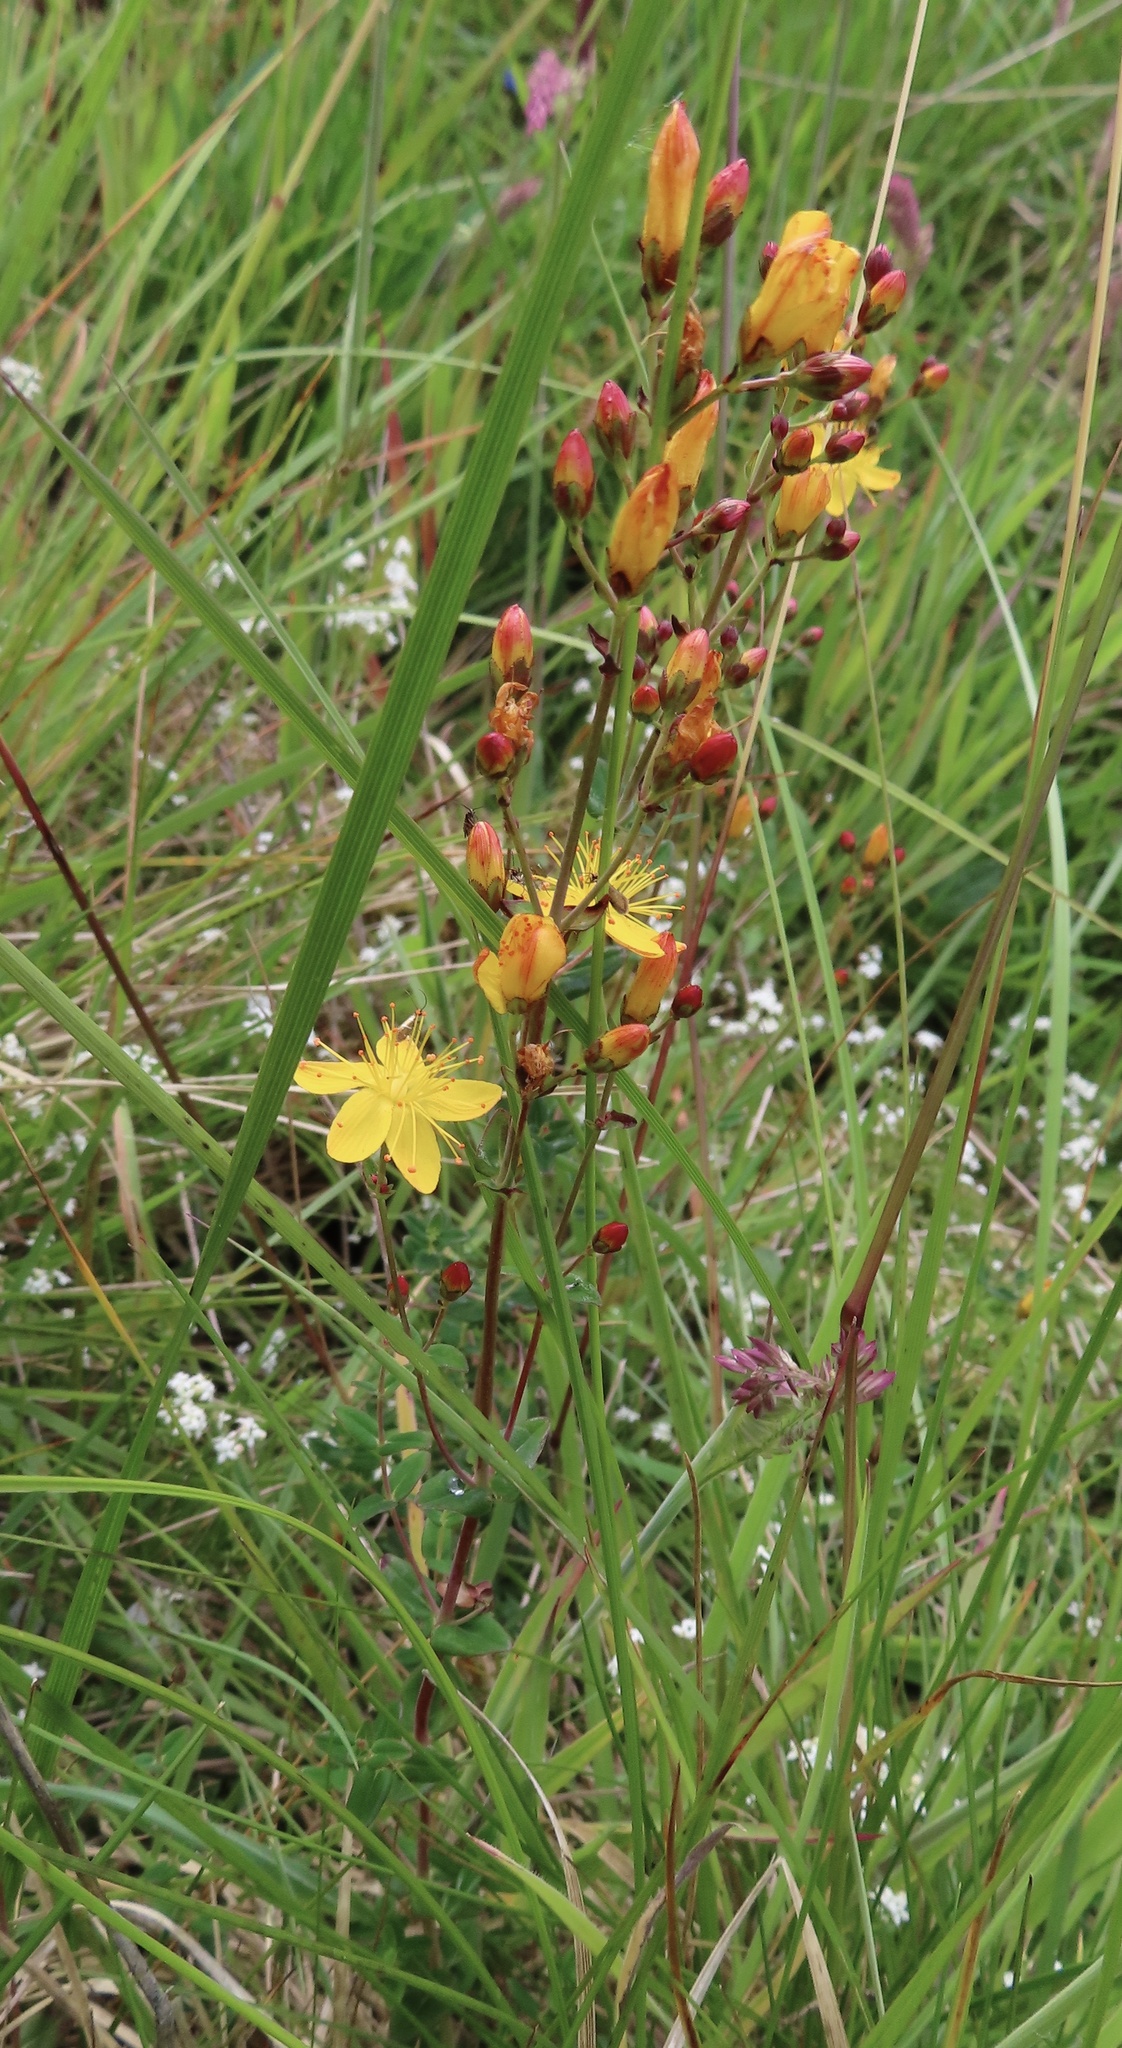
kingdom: Plantae
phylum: Tracheophyta
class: Magnoliopsida
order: Malpighiales
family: Hypericaceae
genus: Hypericum
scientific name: Hypericum pulchrum
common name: Slender st. john's-wort
